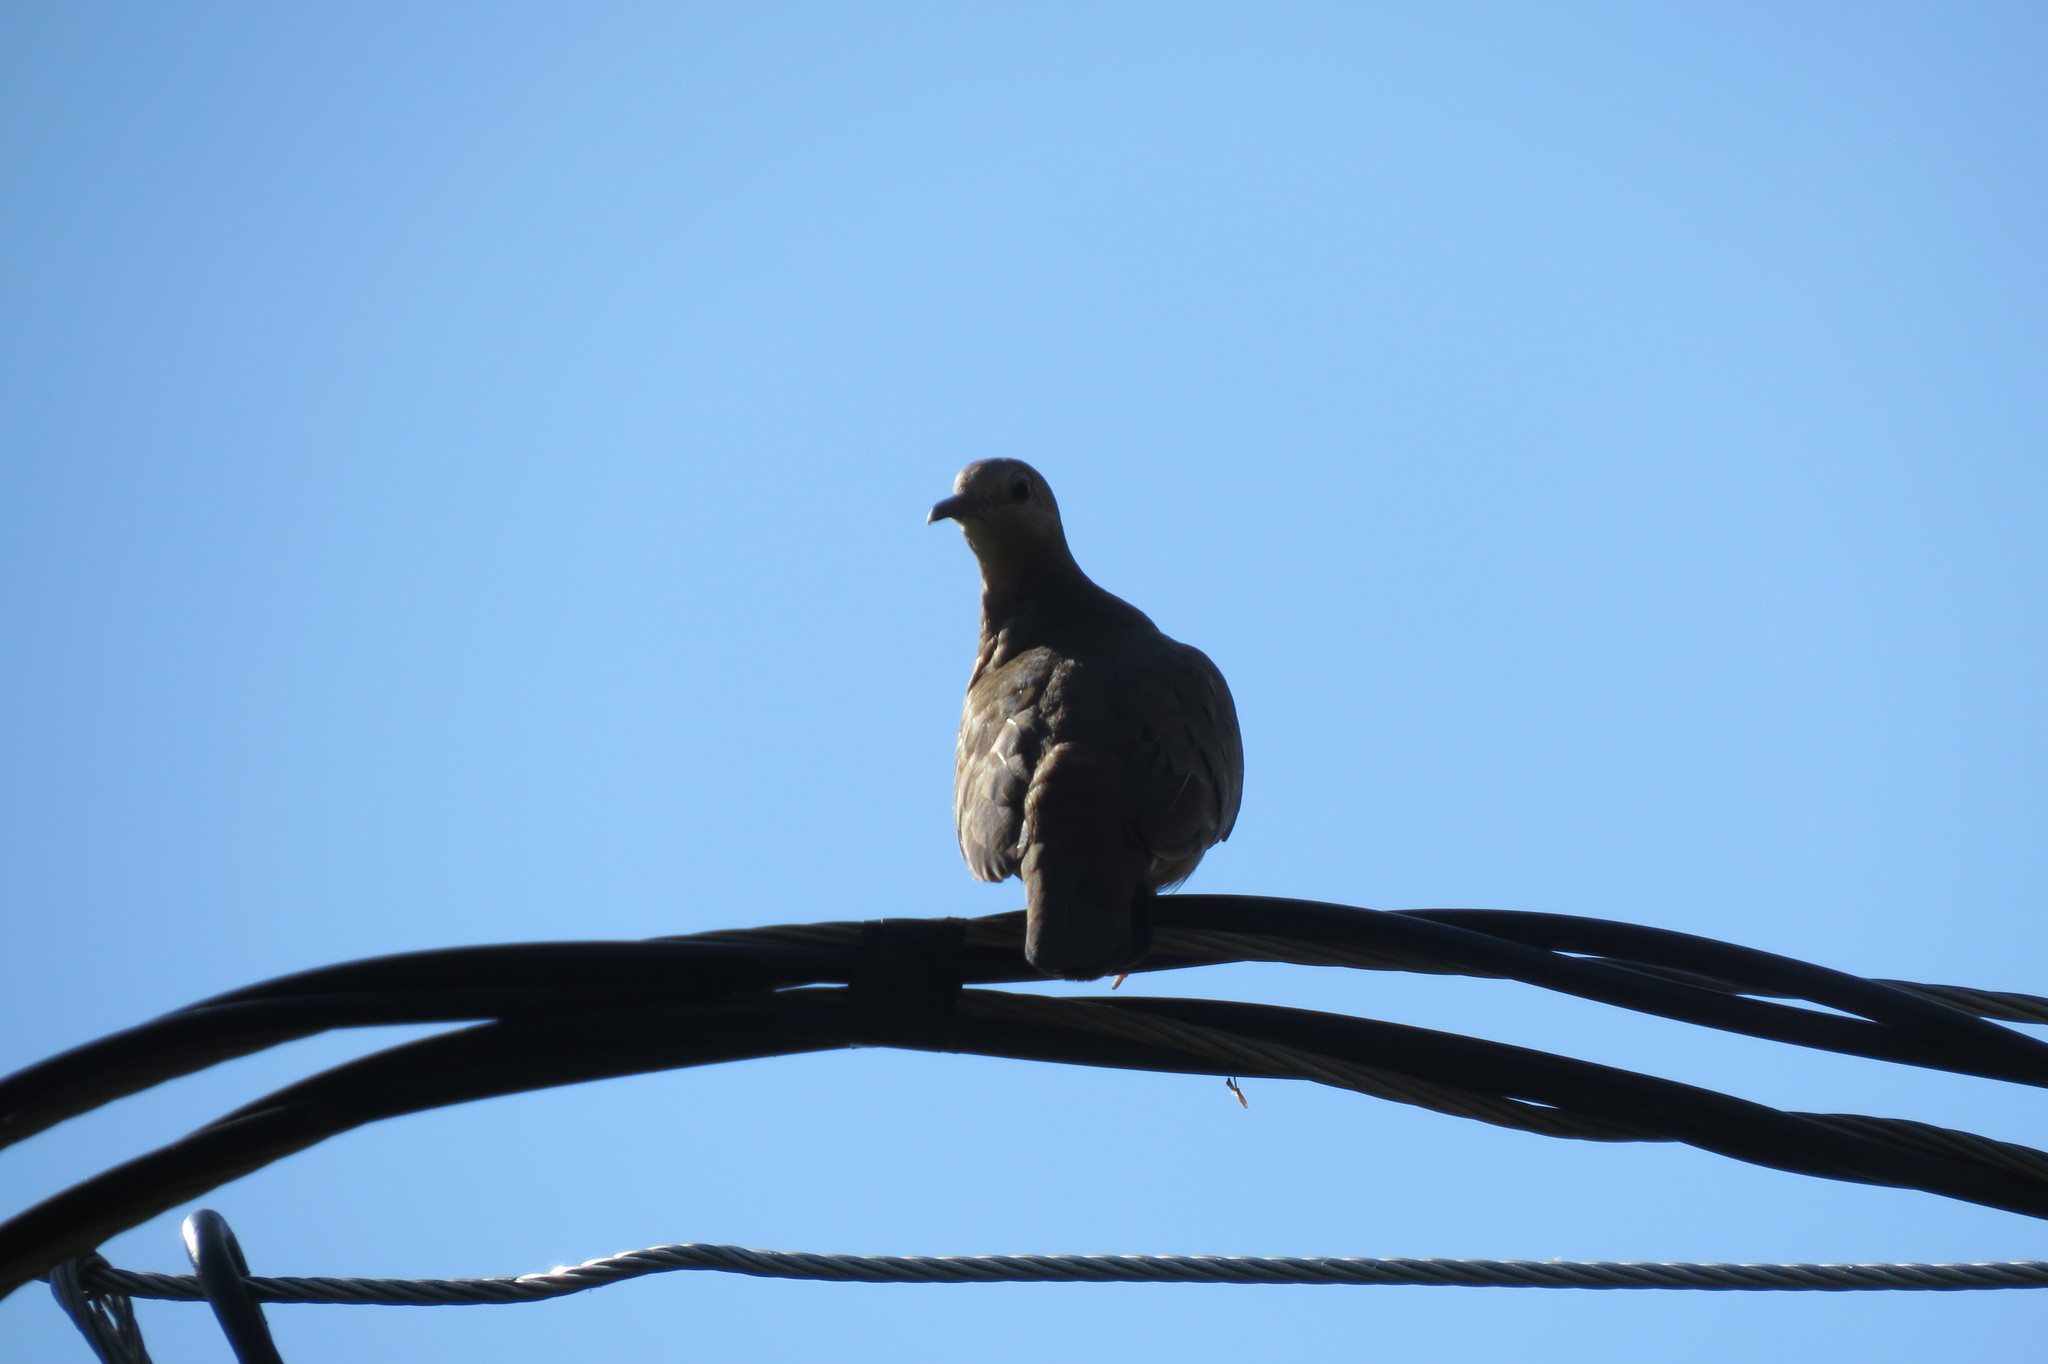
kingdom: Animalia
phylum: Chordata
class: Aves
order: Columbiformes
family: Columbidae
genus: Columbina
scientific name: Columbina talpacoti
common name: Ruddy ground dove
